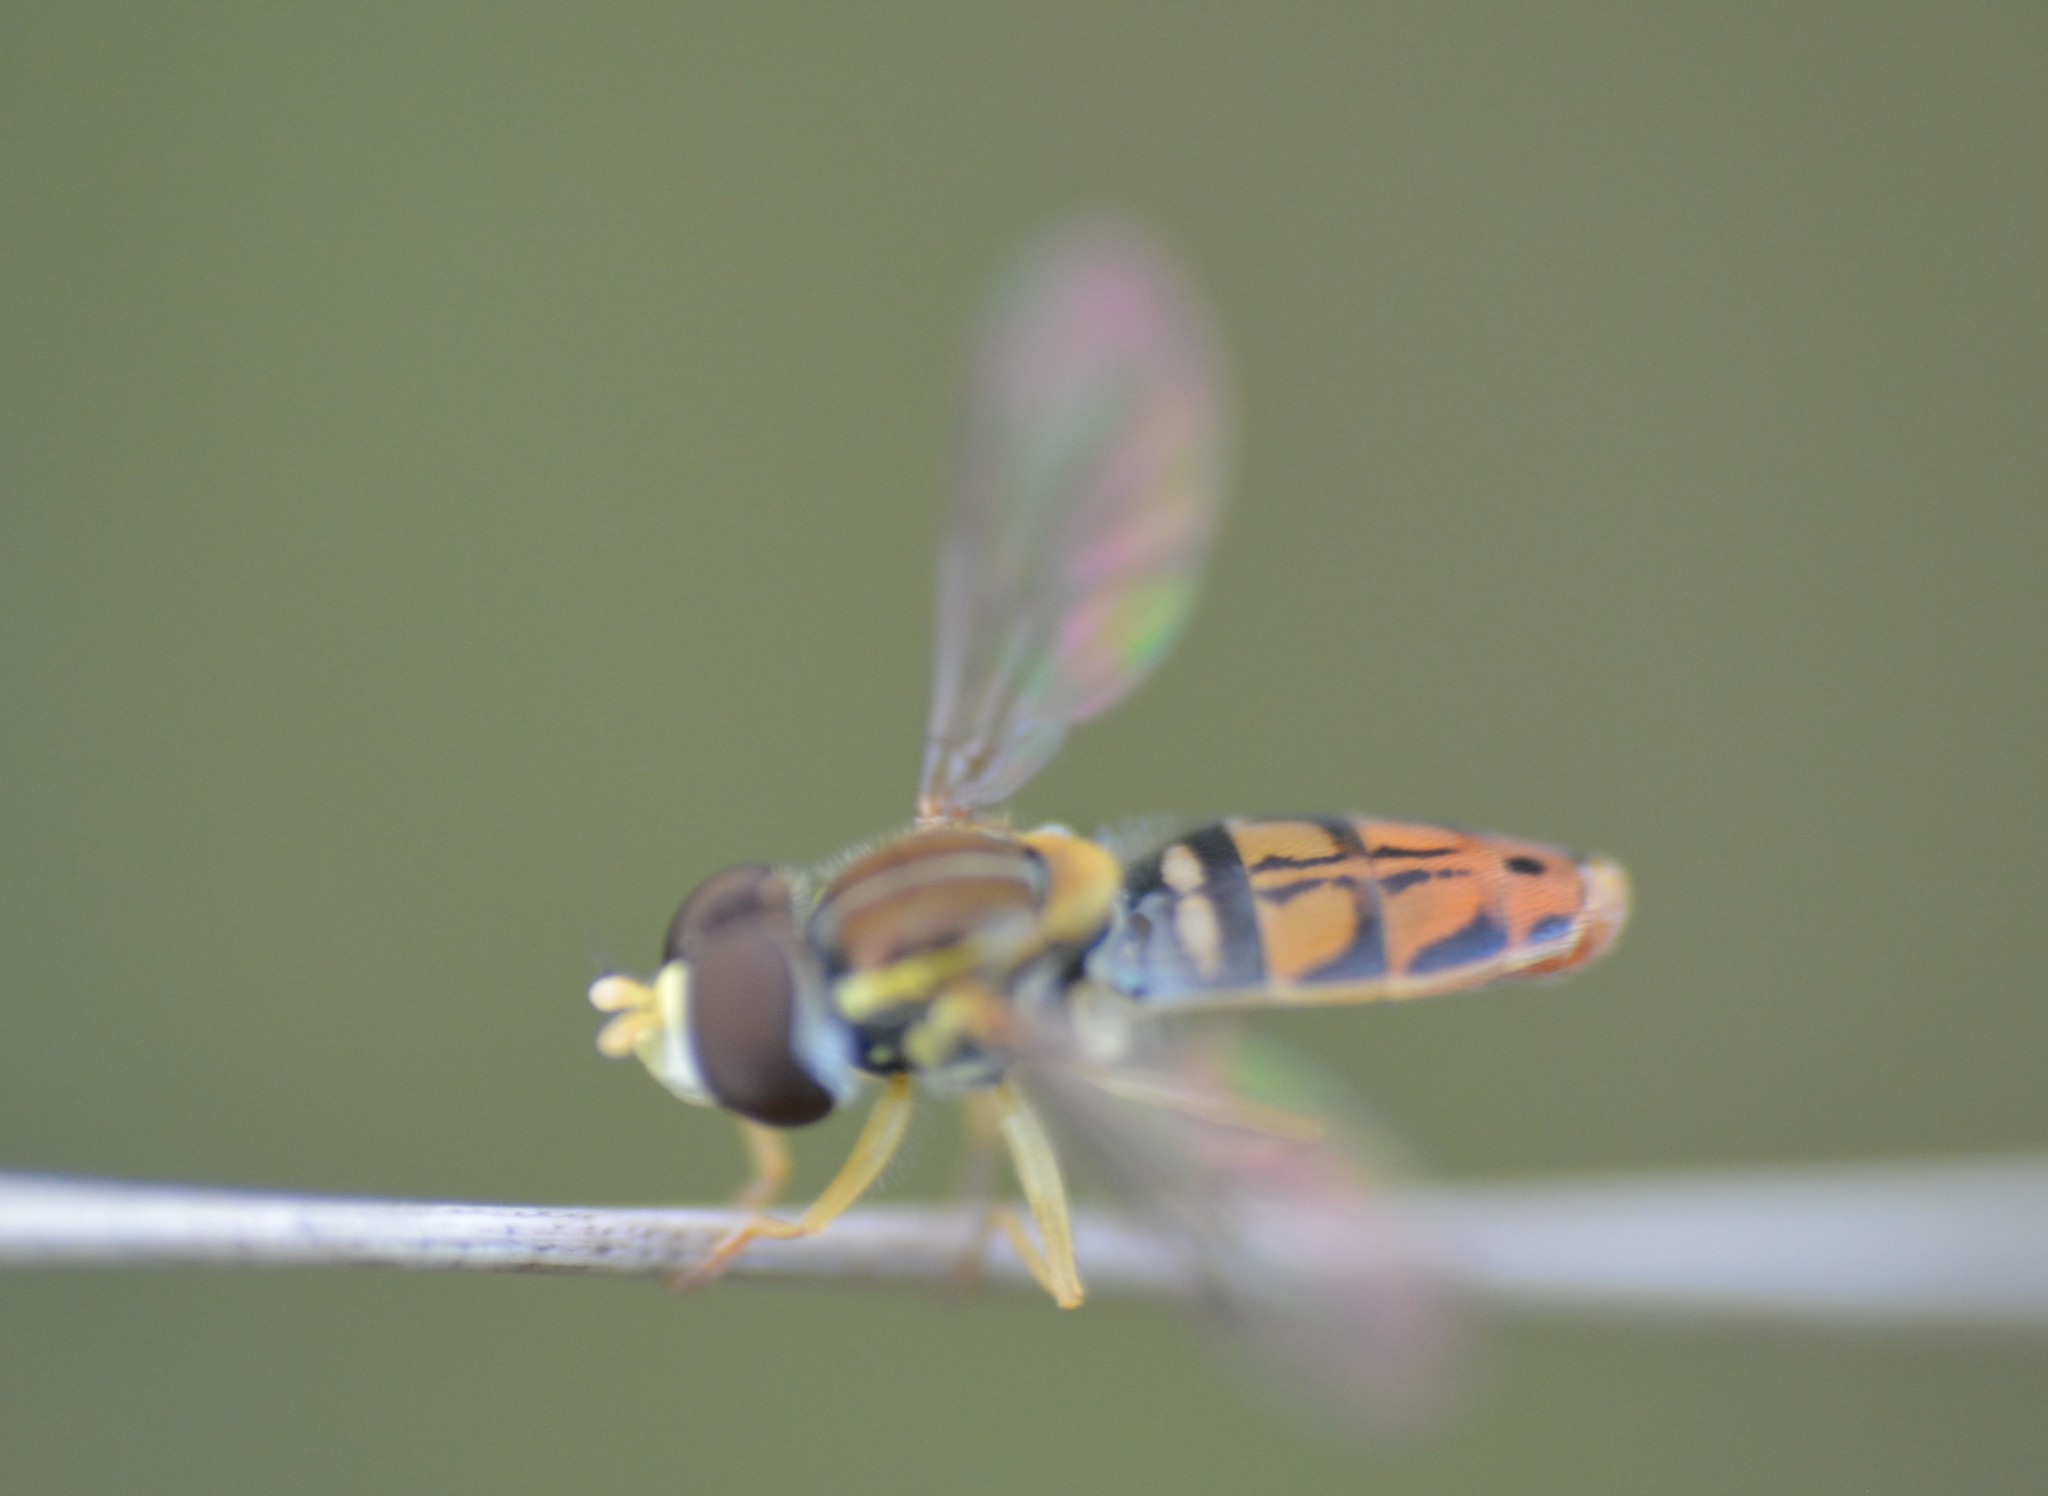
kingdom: Animalia
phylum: Arthropoda
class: Insecta
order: Diptera
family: Syrphidae
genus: Toxomerus
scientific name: Toxomerus marginatus
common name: Syrphid fly
